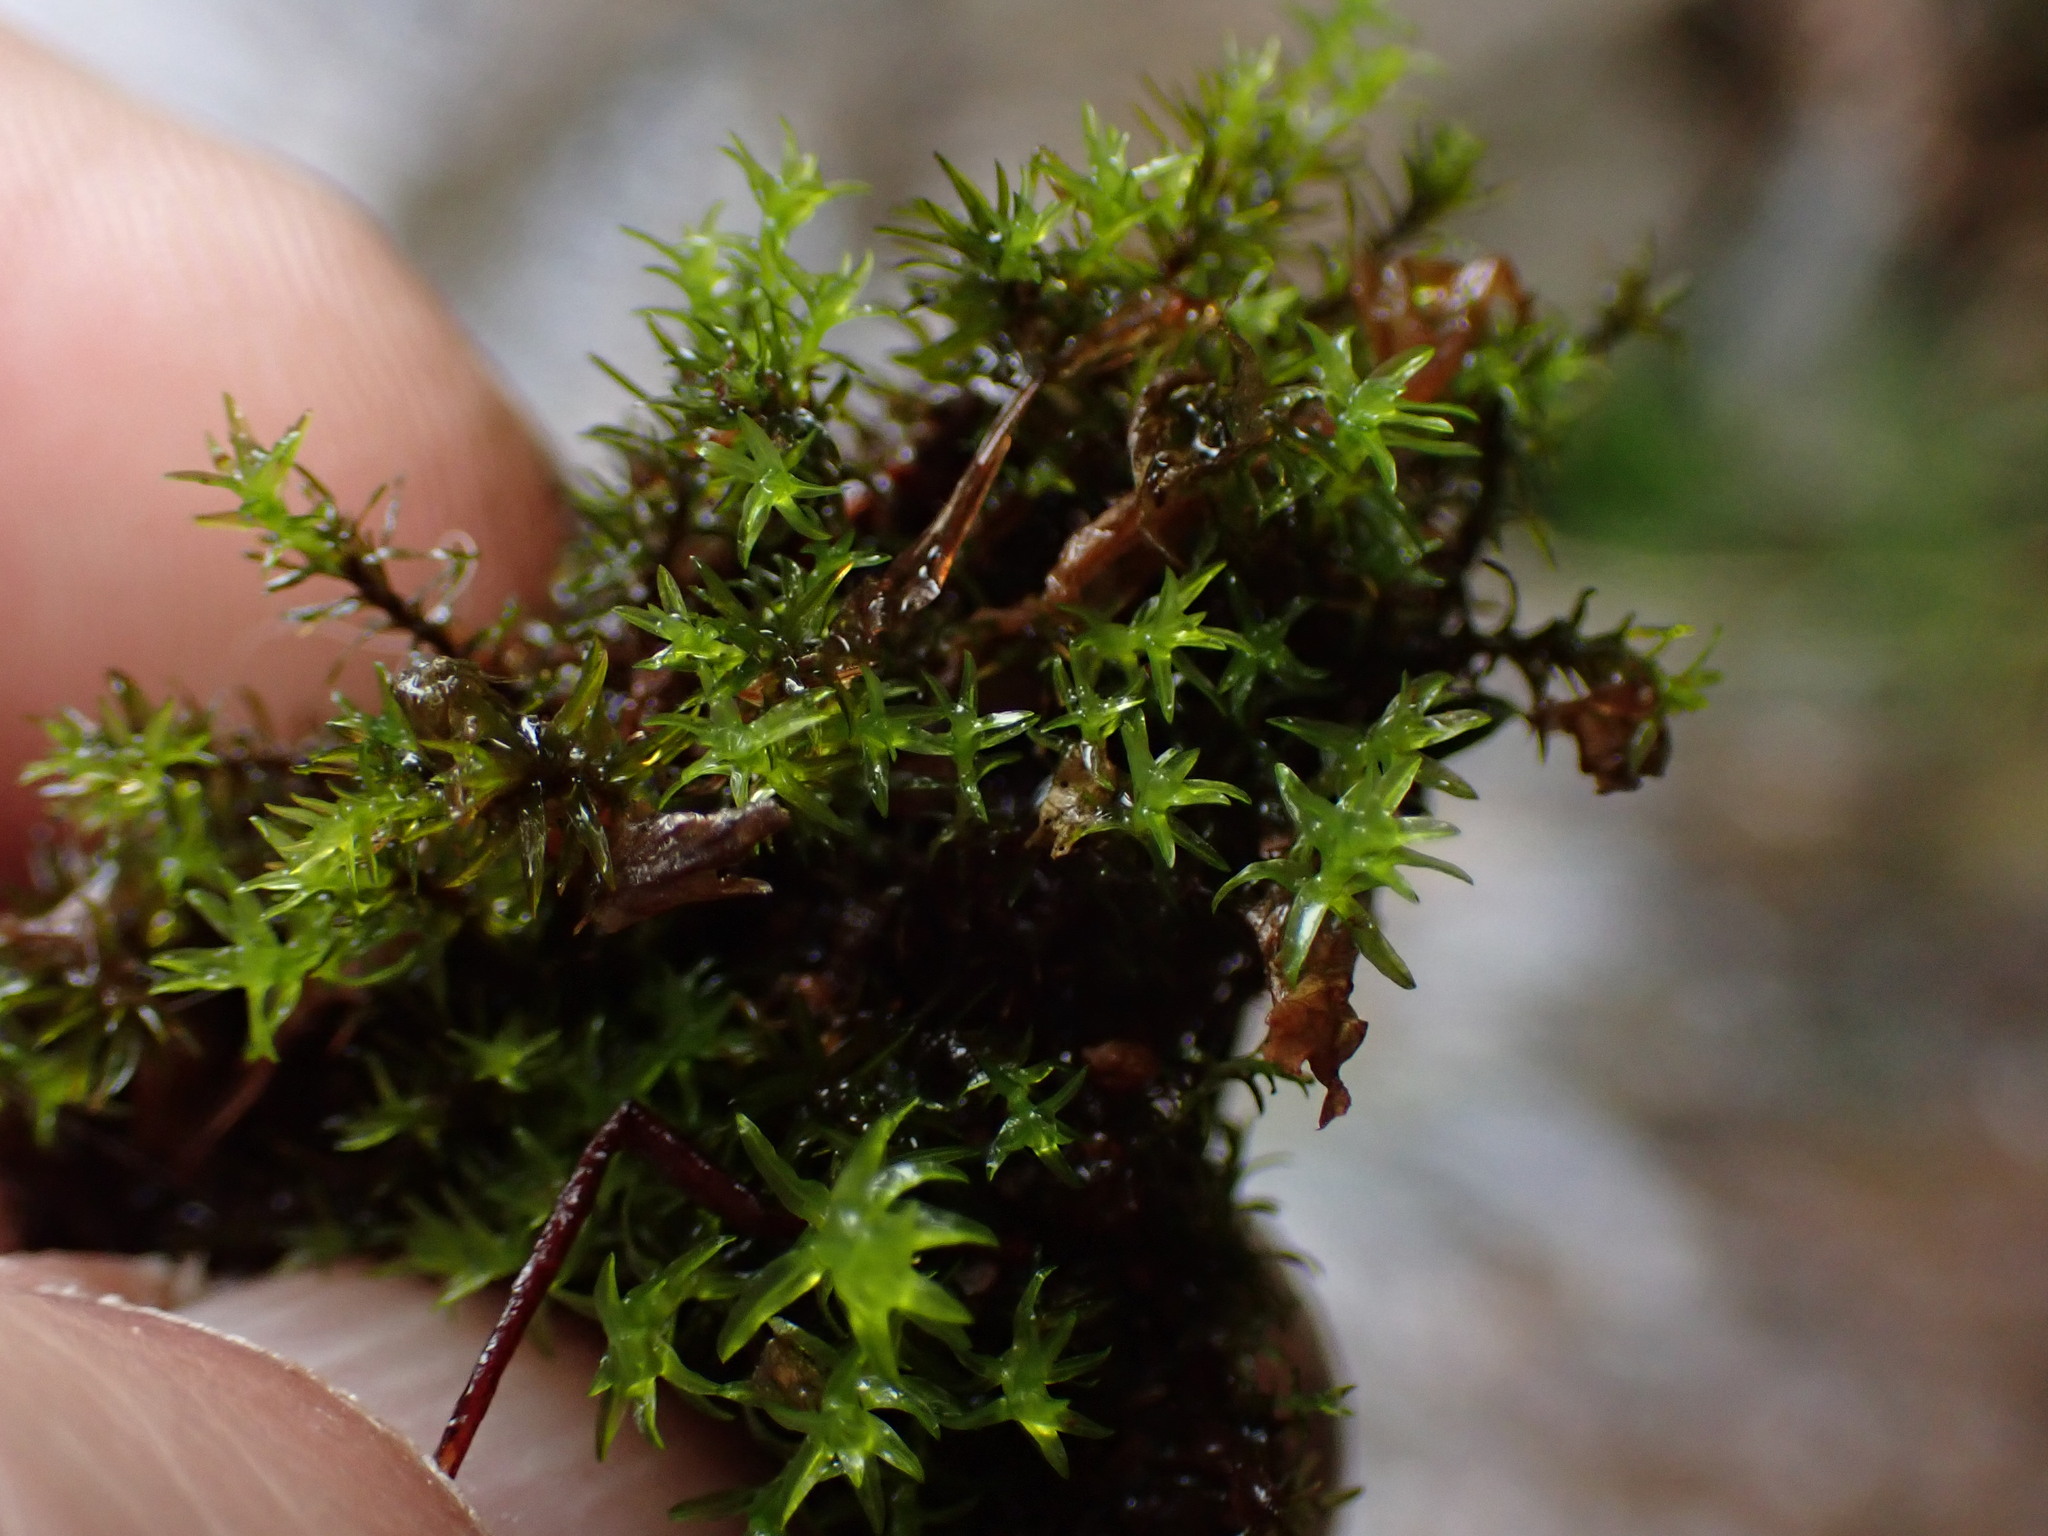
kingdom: Plantae
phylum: Bryophyta
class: Bryopsida
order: Dicranales
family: Aongstroemiaceae
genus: Dichodontium
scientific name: Dichodontium pellucidum
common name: Transparent fork moss
